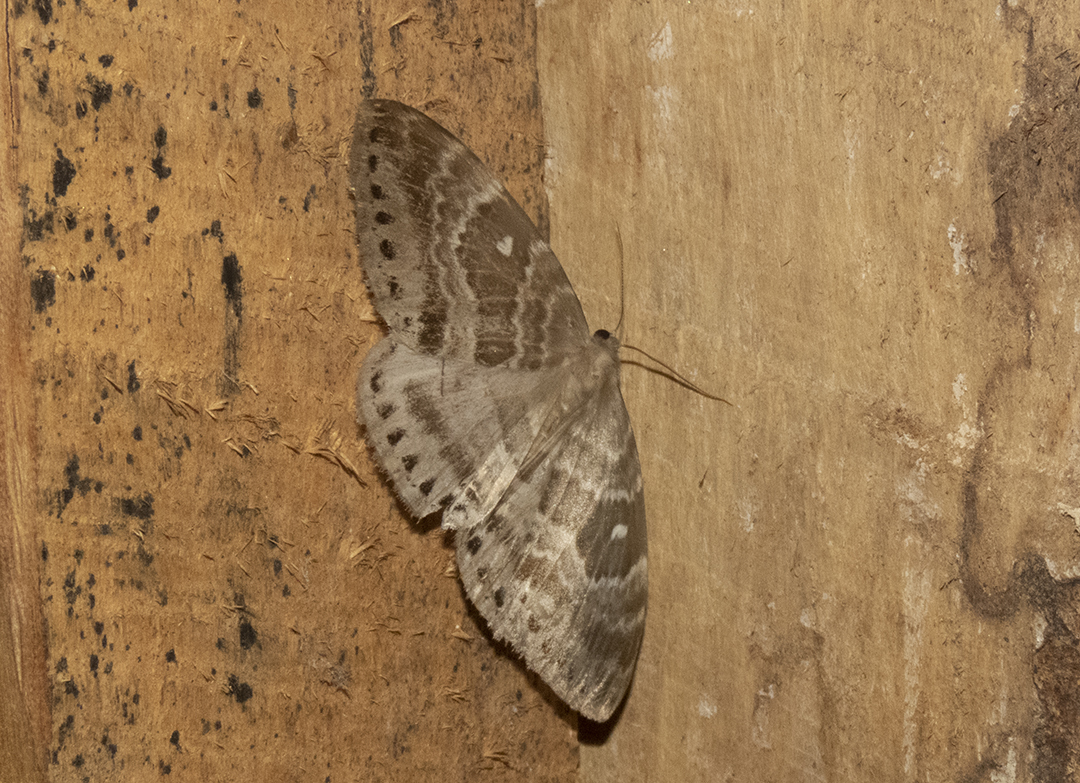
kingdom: Animalia
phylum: Arthropoda
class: Insecta
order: Lepidoptera
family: Drepanidae
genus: Cyclidia
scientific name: Cyclidia rectificata
